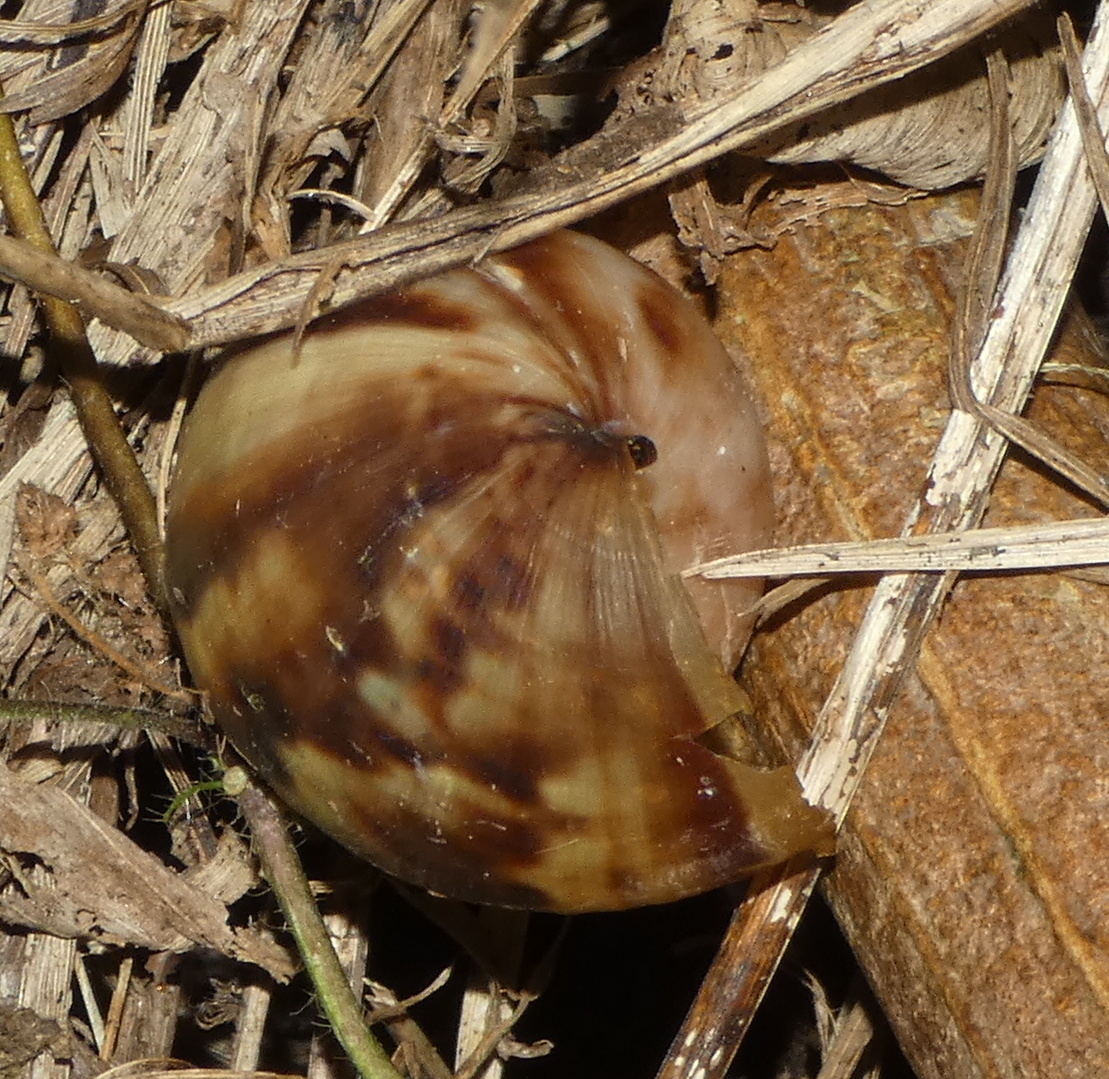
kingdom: Animalia
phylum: Mollusca
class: Gastropoda
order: Stylommatophora
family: Achatinidae
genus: Lissachatina
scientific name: Lissachatina fulica
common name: Giant african snail
